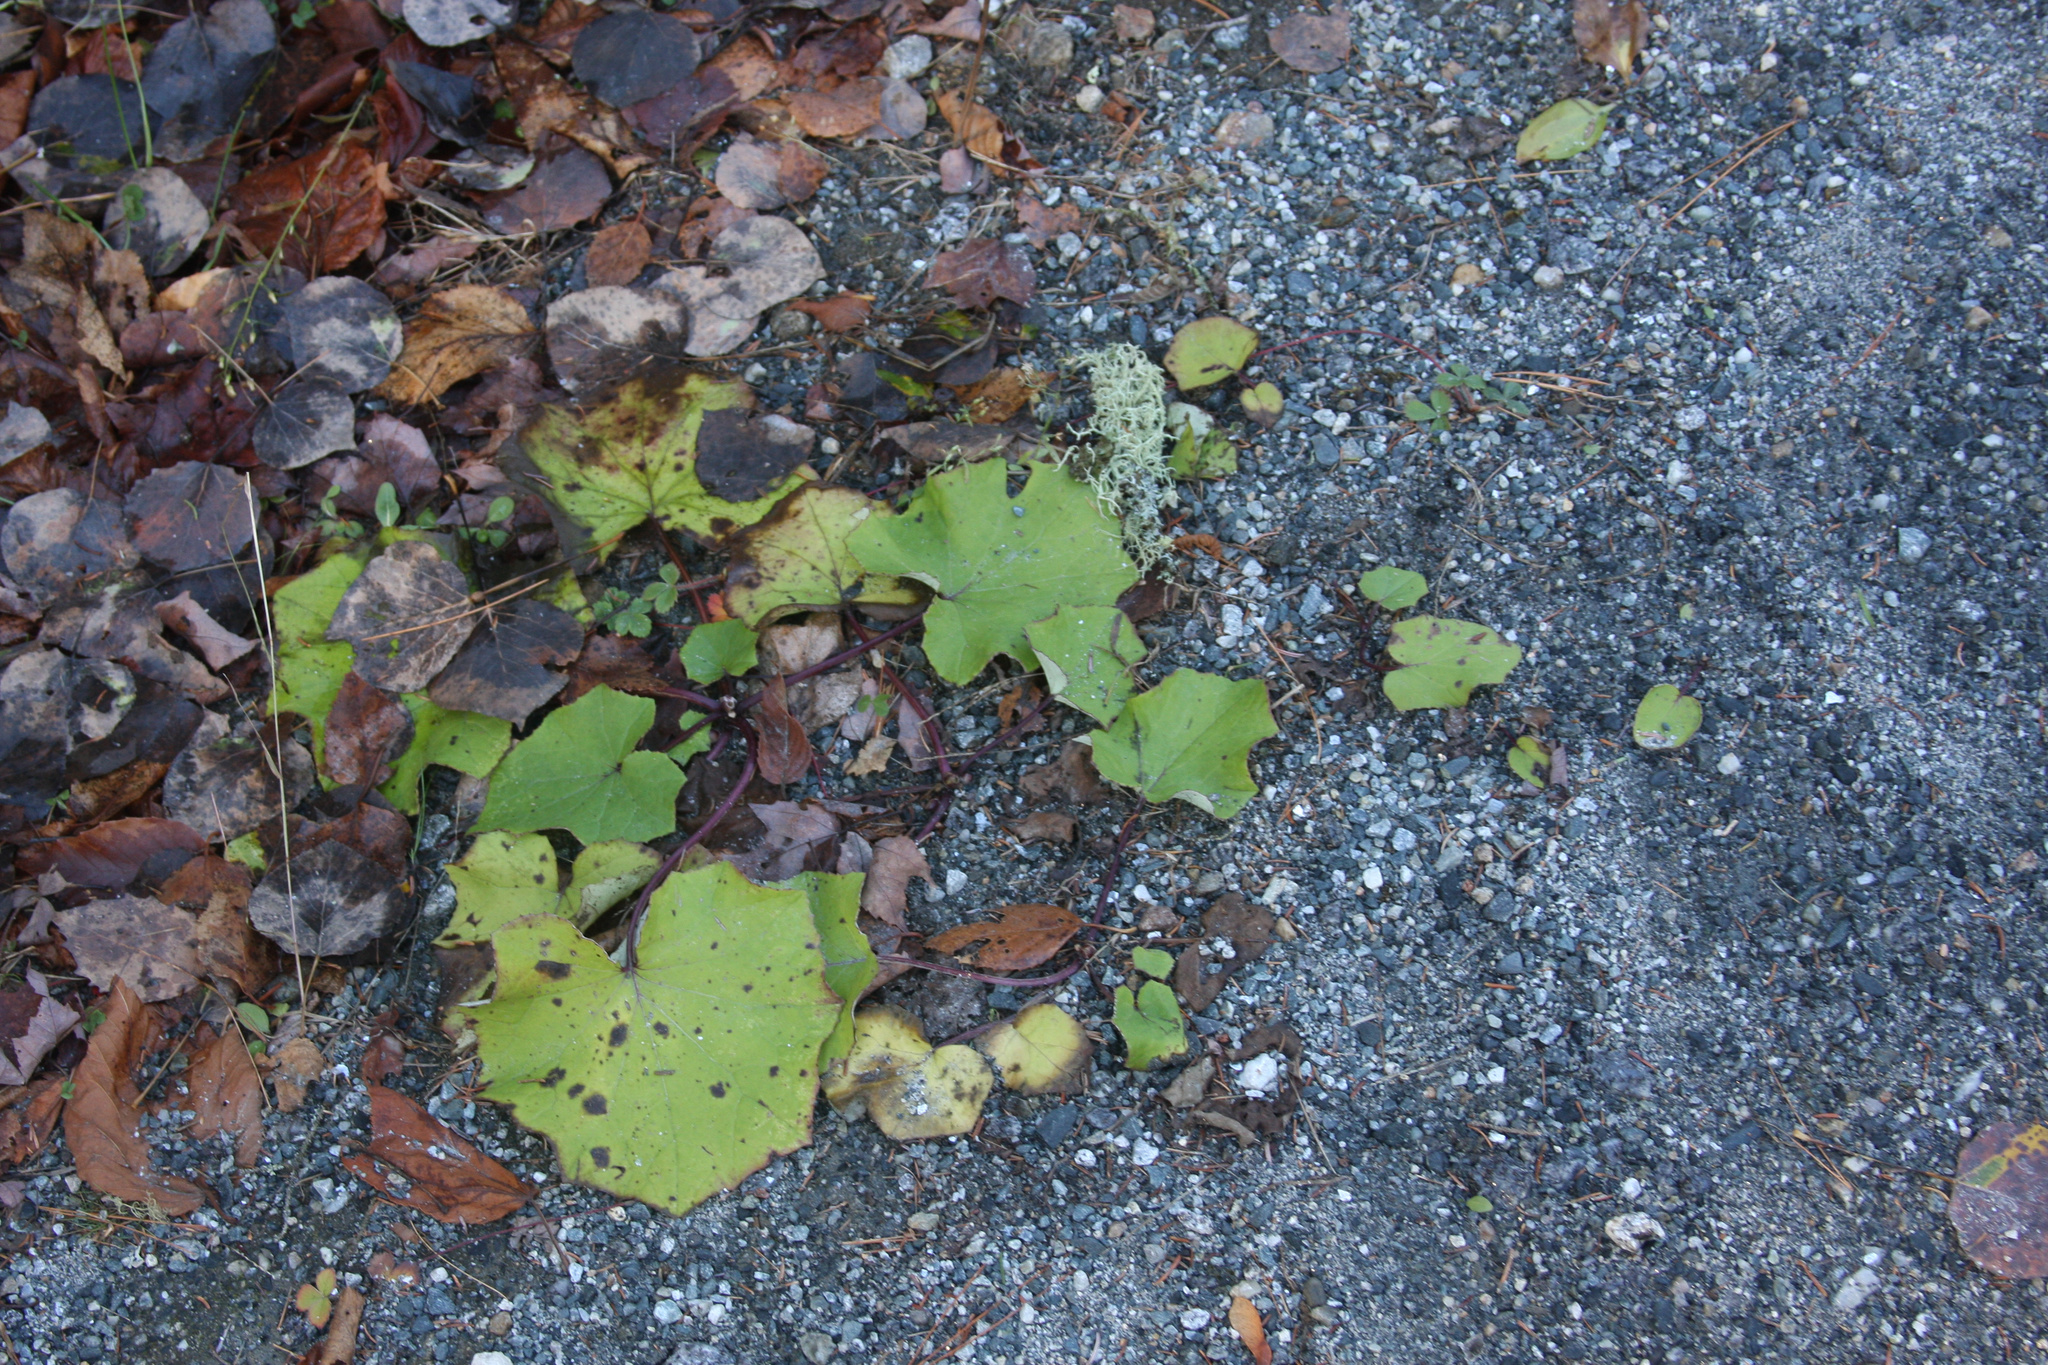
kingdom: Plantae
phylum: Tracheophyta
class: Magnoliopsida
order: Asterales
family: Asteraceae
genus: Tussilago
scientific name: Tussilago farfara
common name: Coltsfoot
